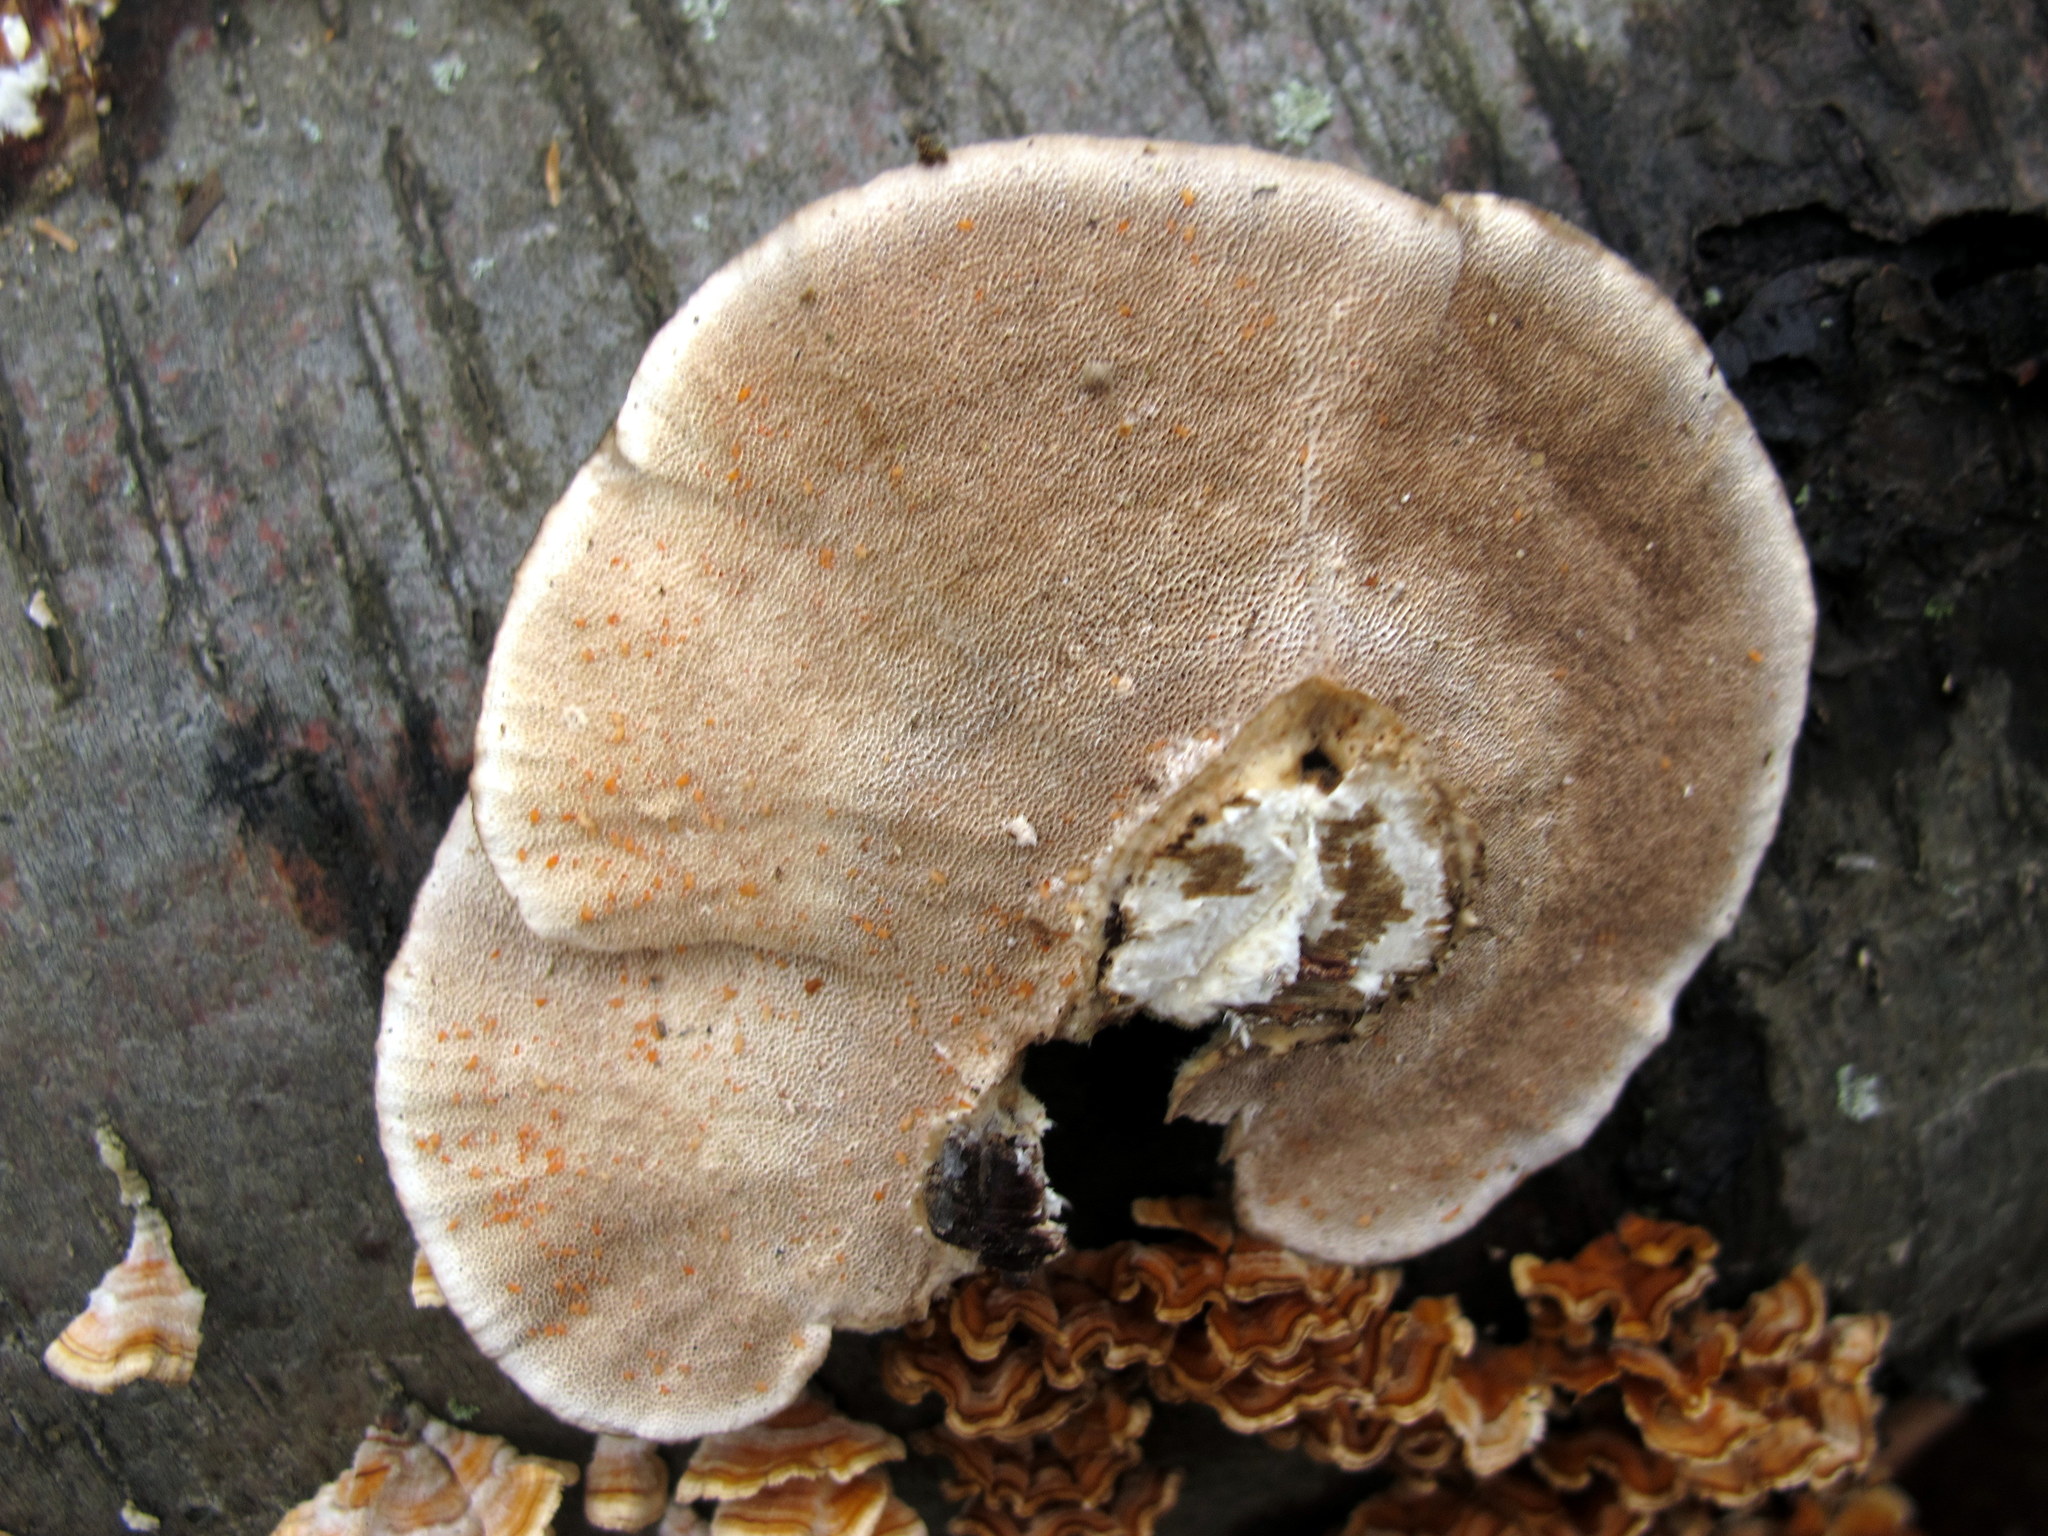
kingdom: Fungi
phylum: Basidiomycota
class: Agaricomycetes
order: Polyporales
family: Polyporaceae
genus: Trametes
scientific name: Trametes hirsuta
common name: Hairy bracket
